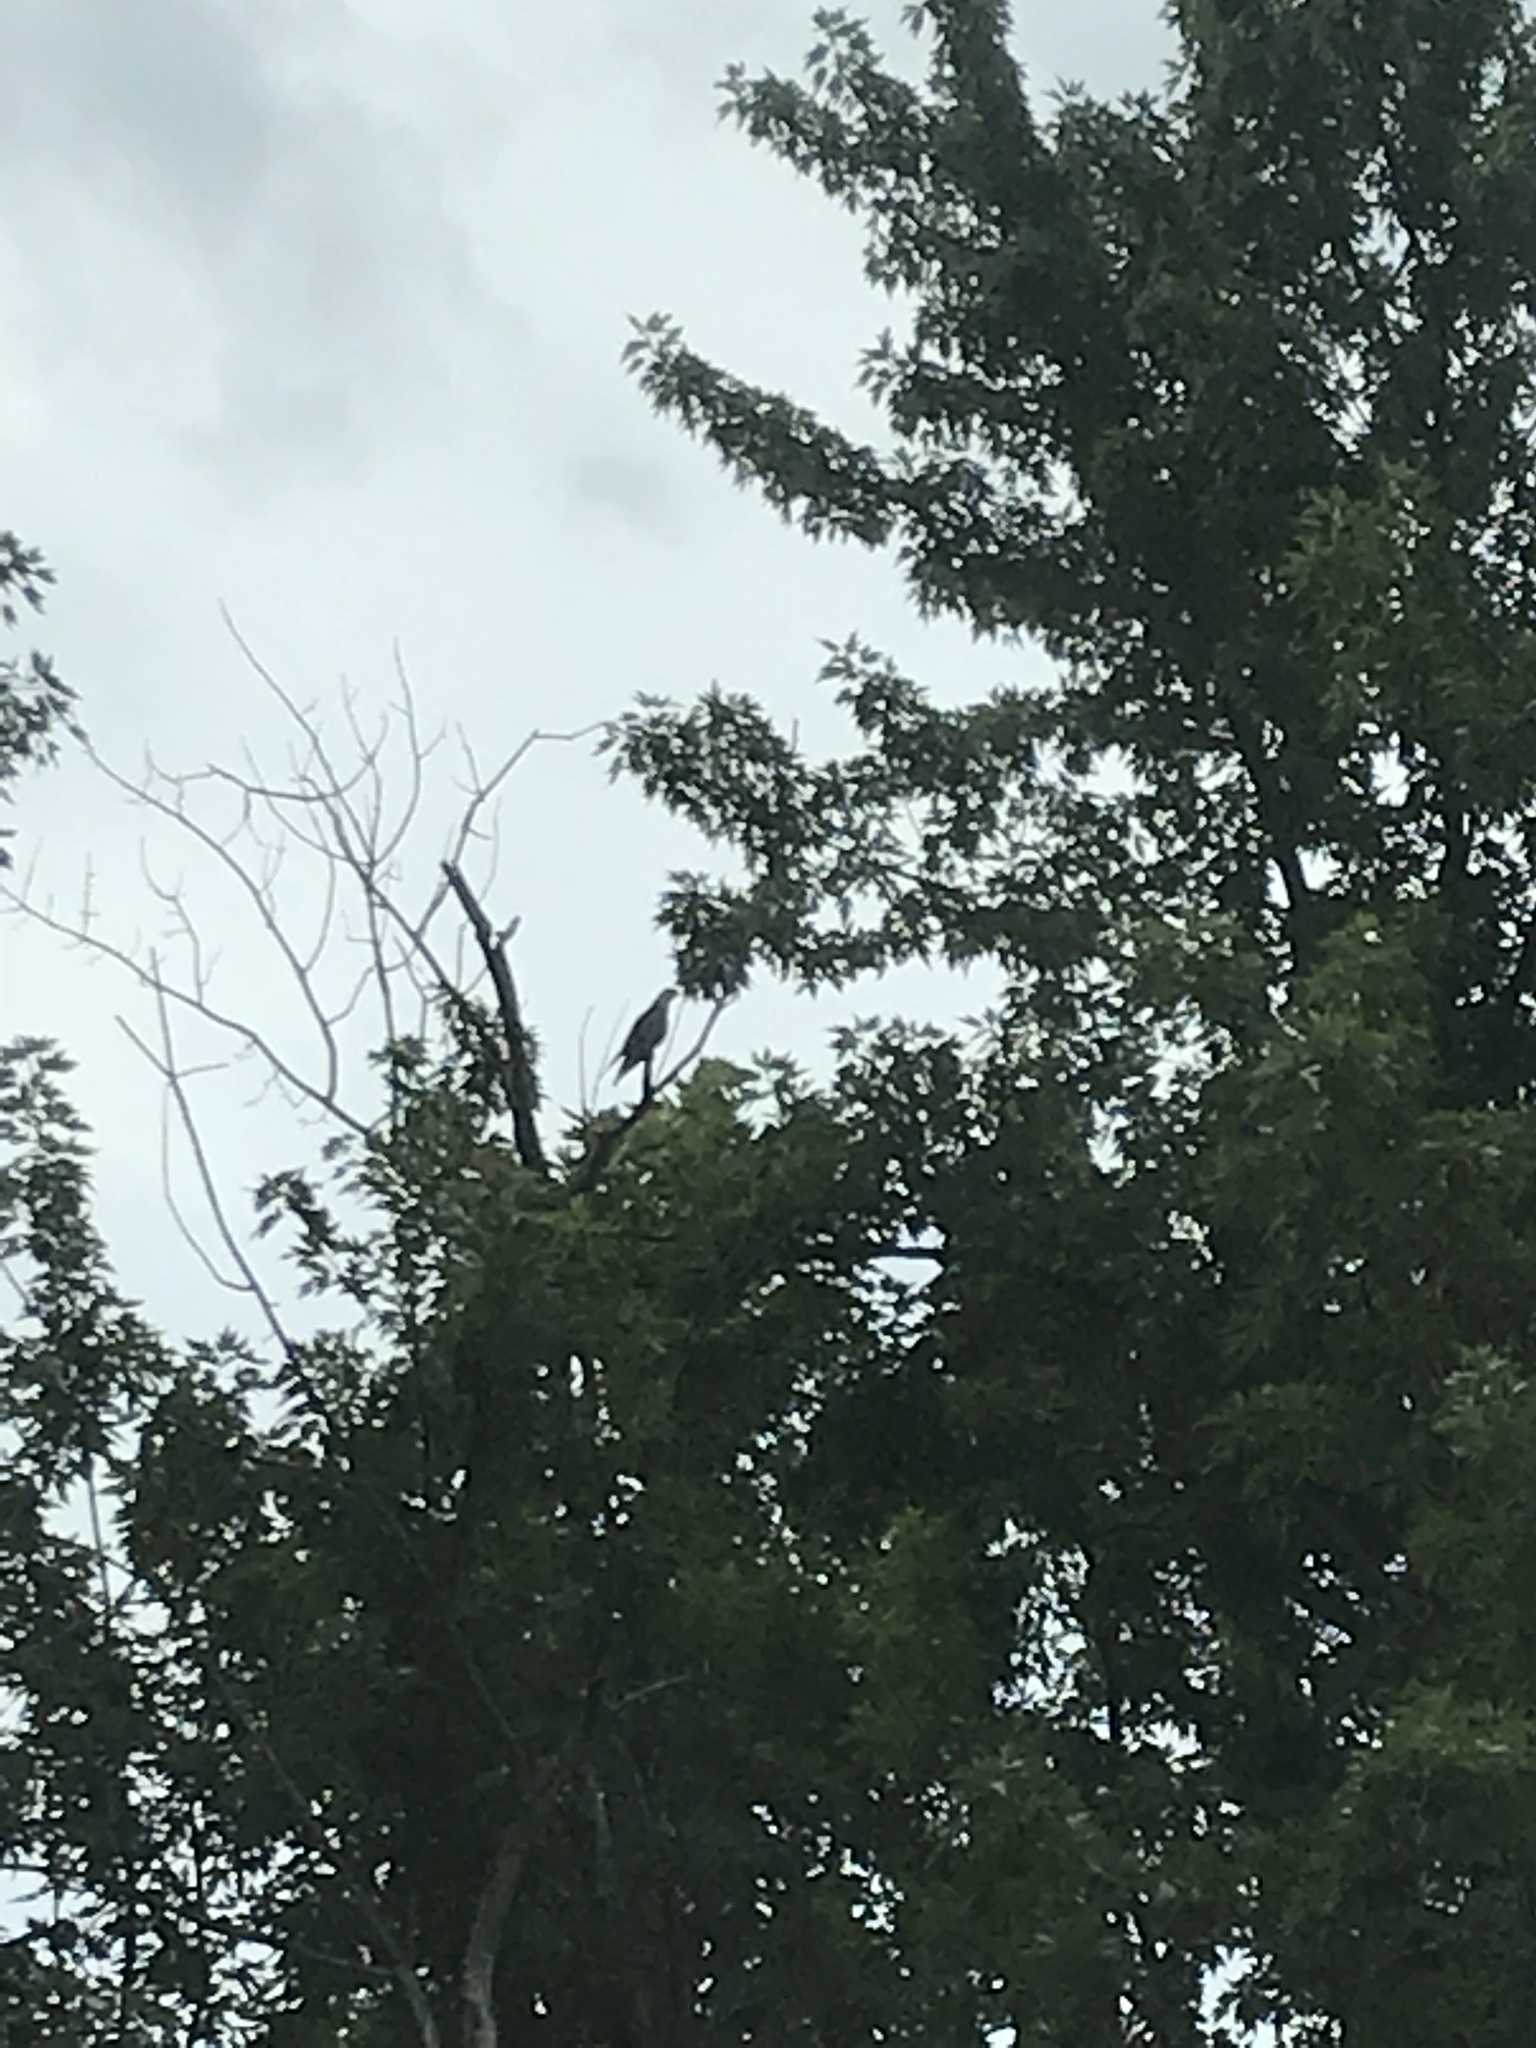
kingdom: Animalia
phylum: Chordata
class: Aves
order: Accipitriformes
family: Accipitridae
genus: Ictinia
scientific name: Ictinia mississippiensis
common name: Mississippi kite
